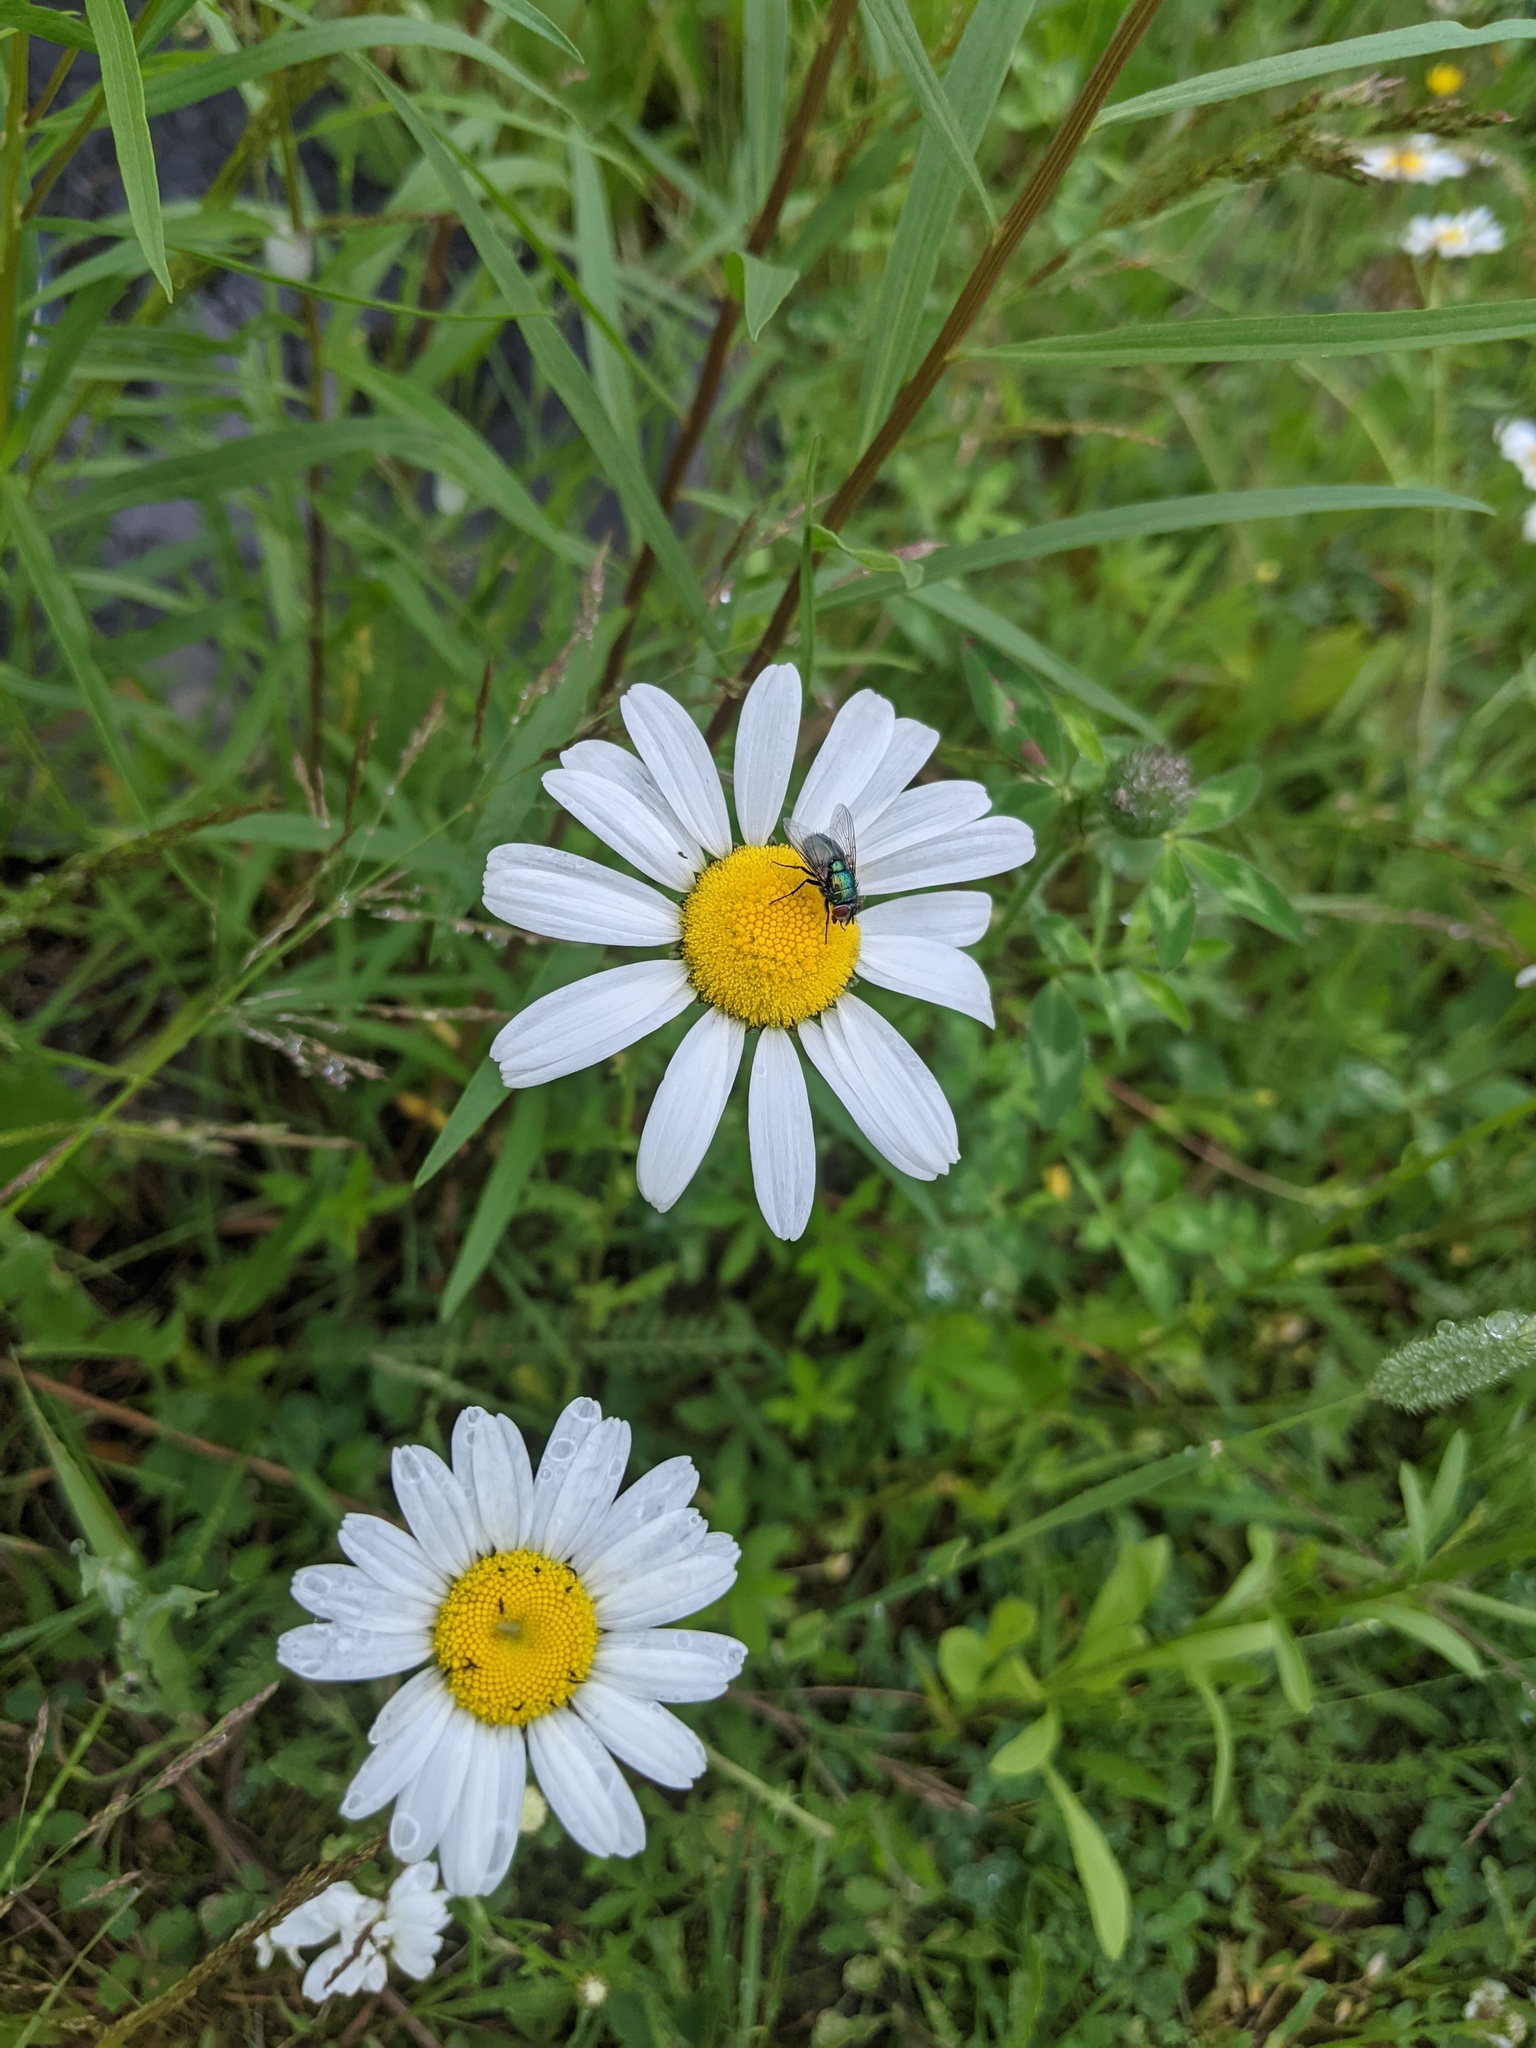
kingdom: Plantae
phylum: Tracheophyta
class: Magnoliopsida
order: Asterales
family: Asteraceae
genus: Leucanthemum
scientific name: Leucanthemum vulgare
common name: Oxeye daisy
